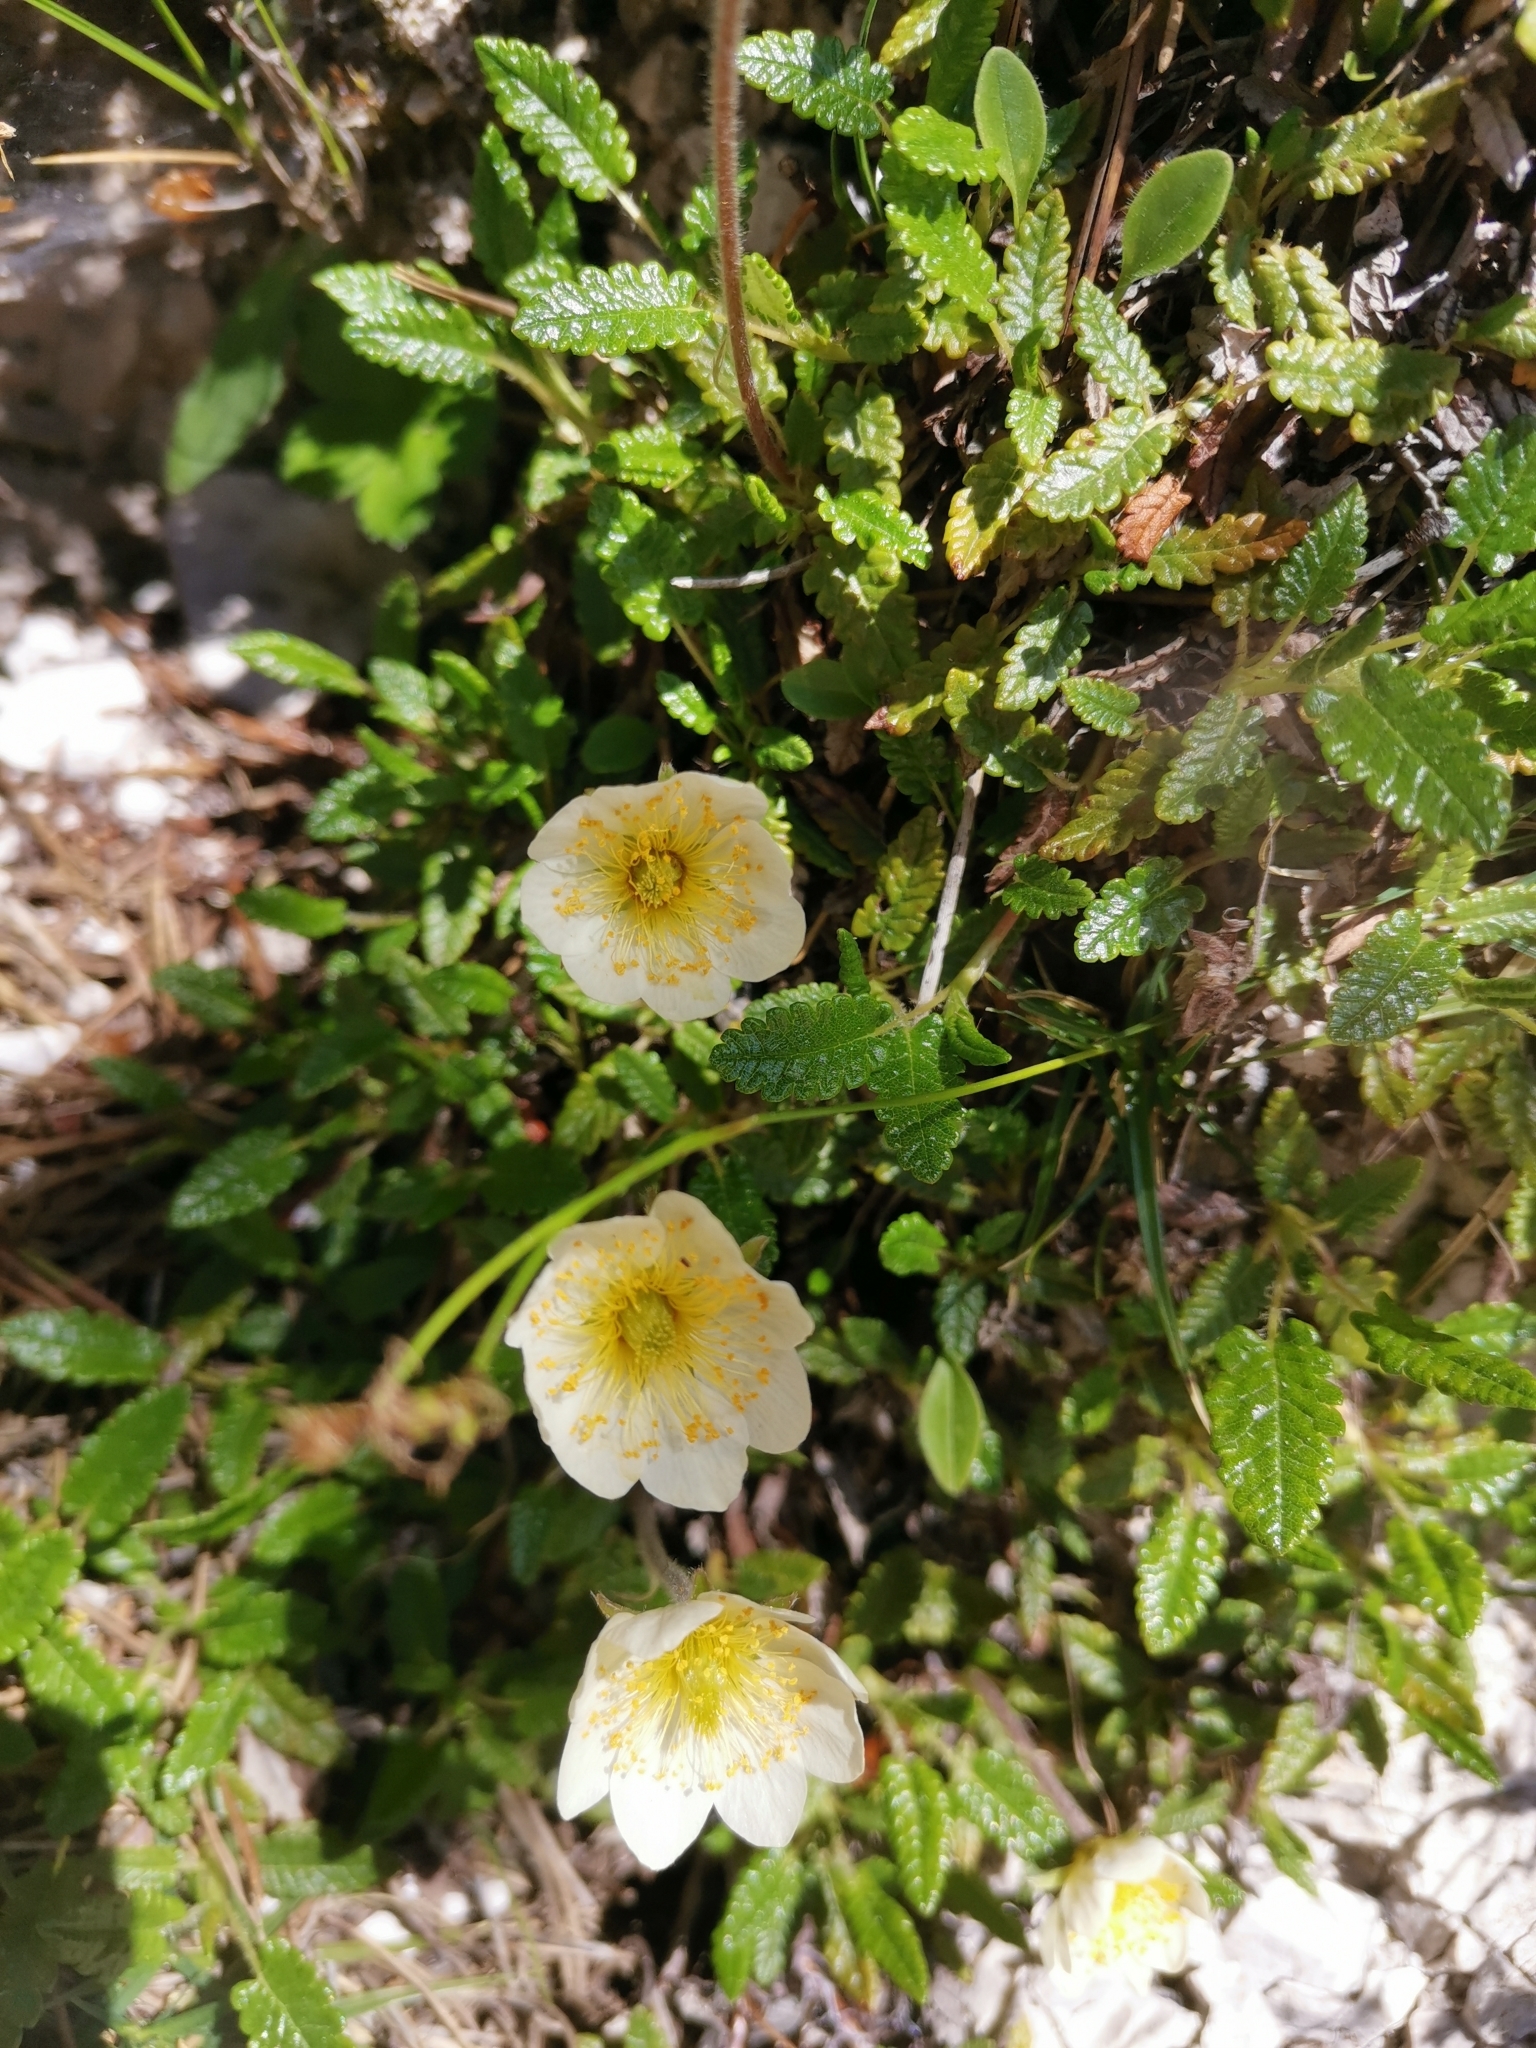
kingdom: Plantae
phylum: Tracheophyta
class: Magnoliopsida
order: Rosales
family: Rosaceae
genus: Dryas
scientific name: Dryas octopetala
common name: Eight-petal mountain-avens
